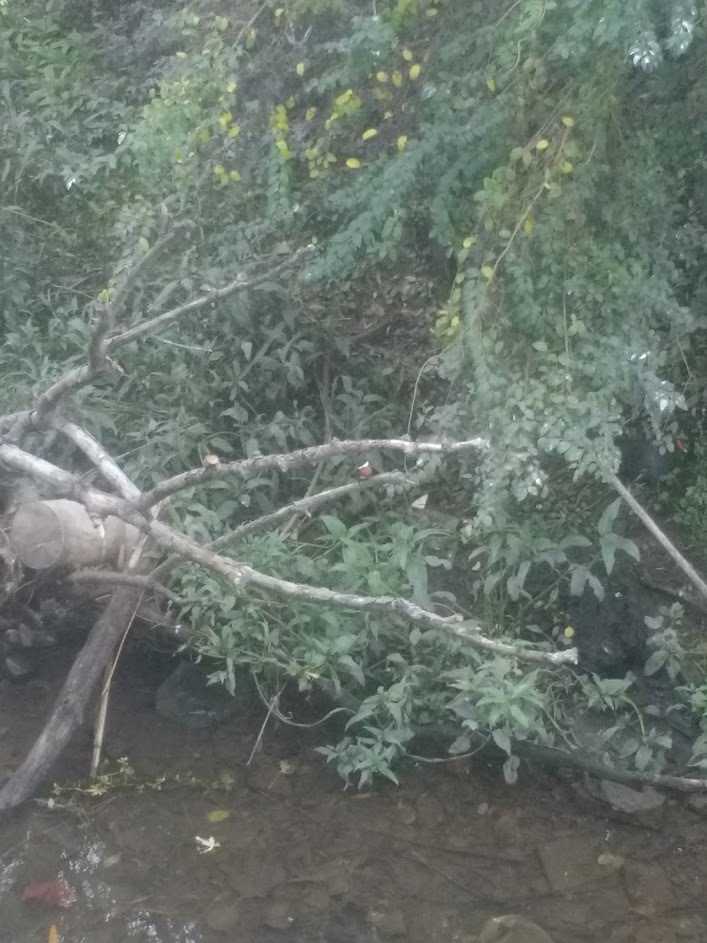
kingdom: Animalia
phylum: Chordata
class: Aves
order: Coraciiformes
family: Alcedinidae
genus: Chloroceryle
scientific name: Chloroceryle amazona
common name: Amazon kingfisher
